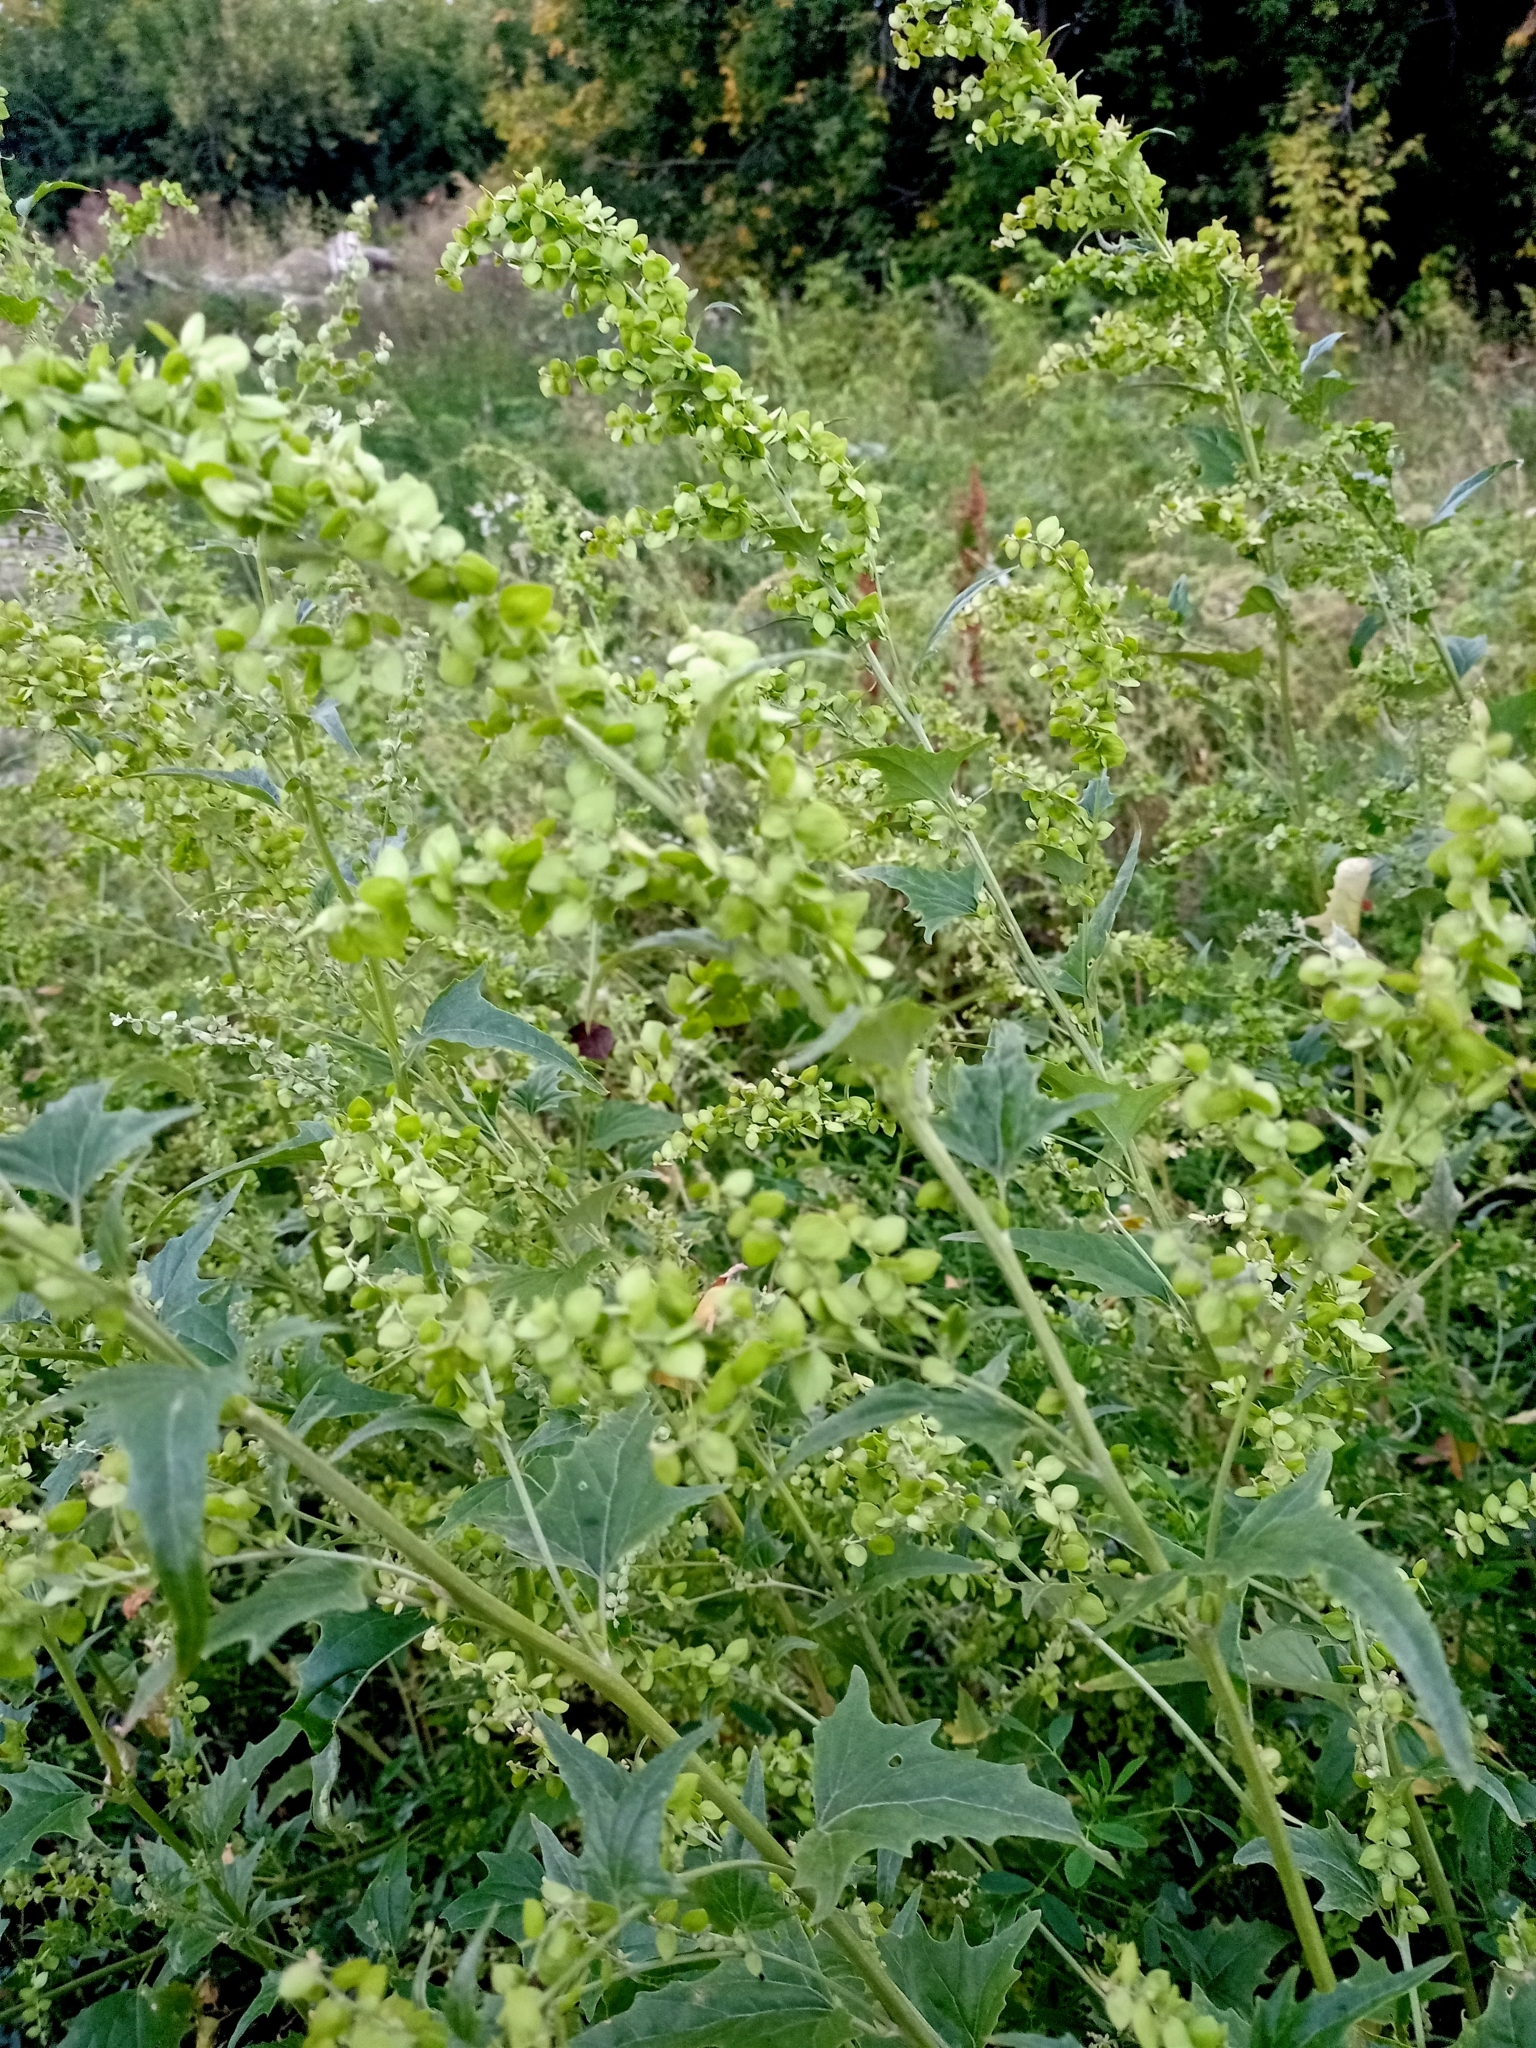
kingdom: Plantae
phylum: Tracheophyta
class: Magnoliopsida
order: Caryophyllales
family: Amaranthaceae
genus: Atriplex
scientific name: Atriplex sagittata
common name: Purple orache
